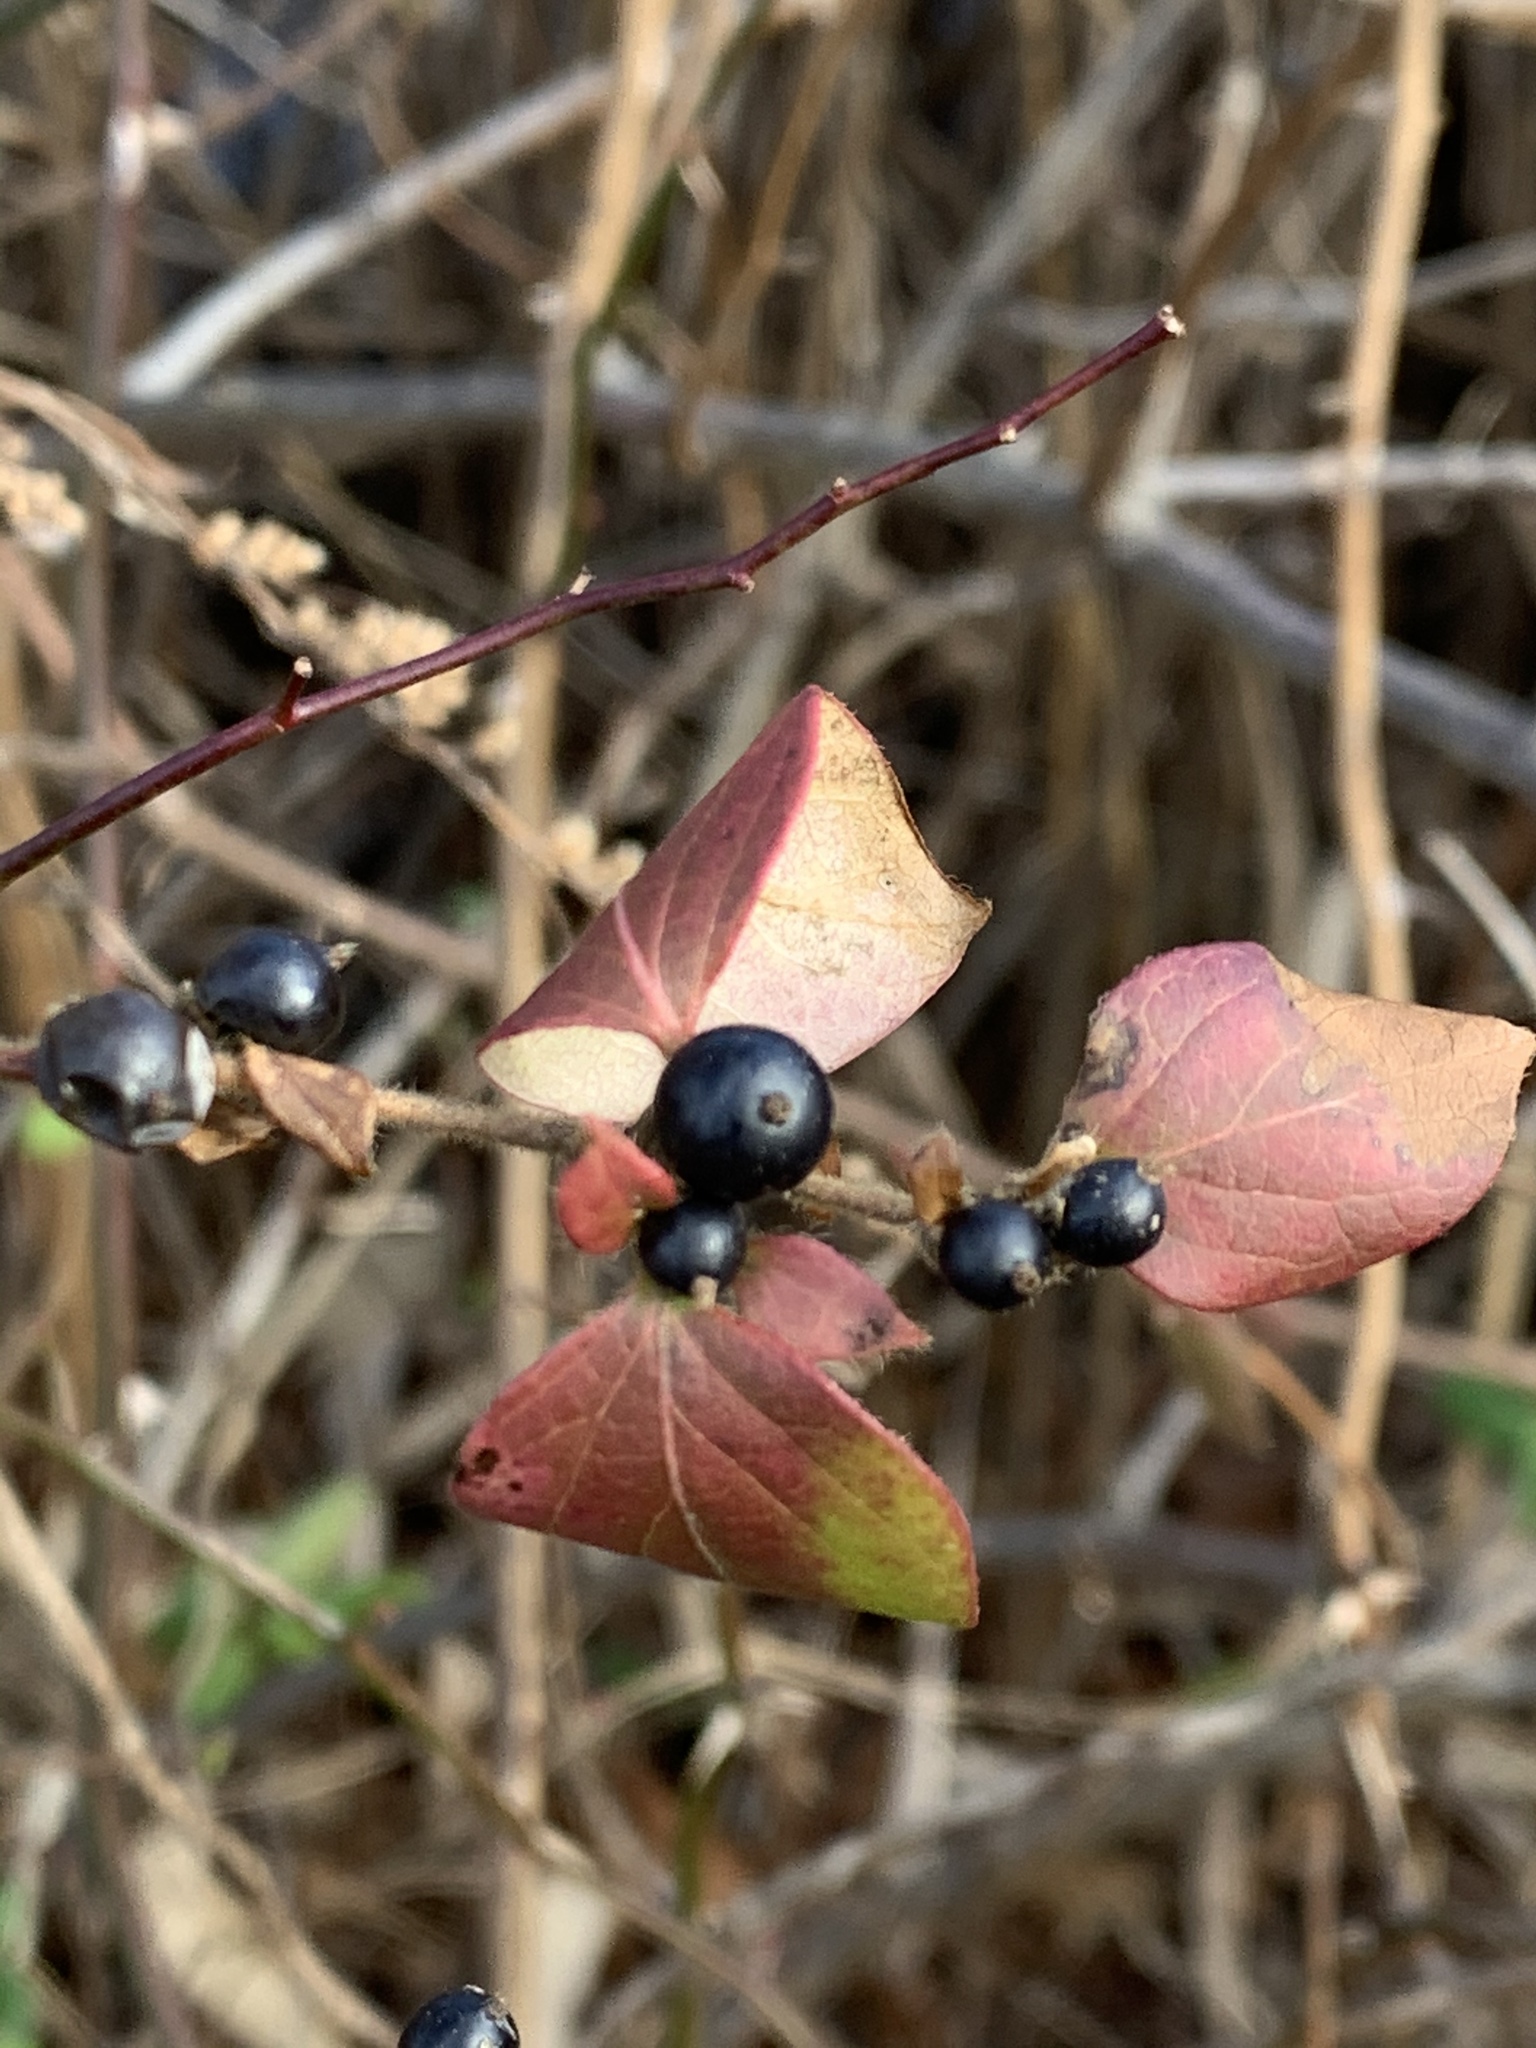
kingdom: Plantae
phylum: Tracheophyta
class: Magnoliopsida
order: Dipsacales
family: Caprifoliaceae
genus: Lonicera
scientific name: Lonicera japonica
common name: Japanese honeysuckle
